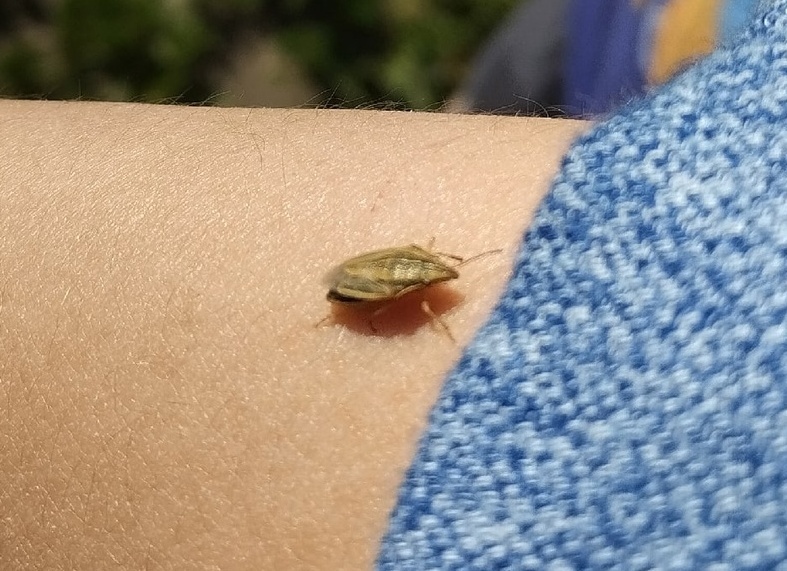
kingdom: Animalia
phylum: Arthropoda
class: Insecta
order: Hemiptera
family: Pentatomidae
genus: Aelia
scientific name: Aelia acuminata
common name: Bishop's mitre
